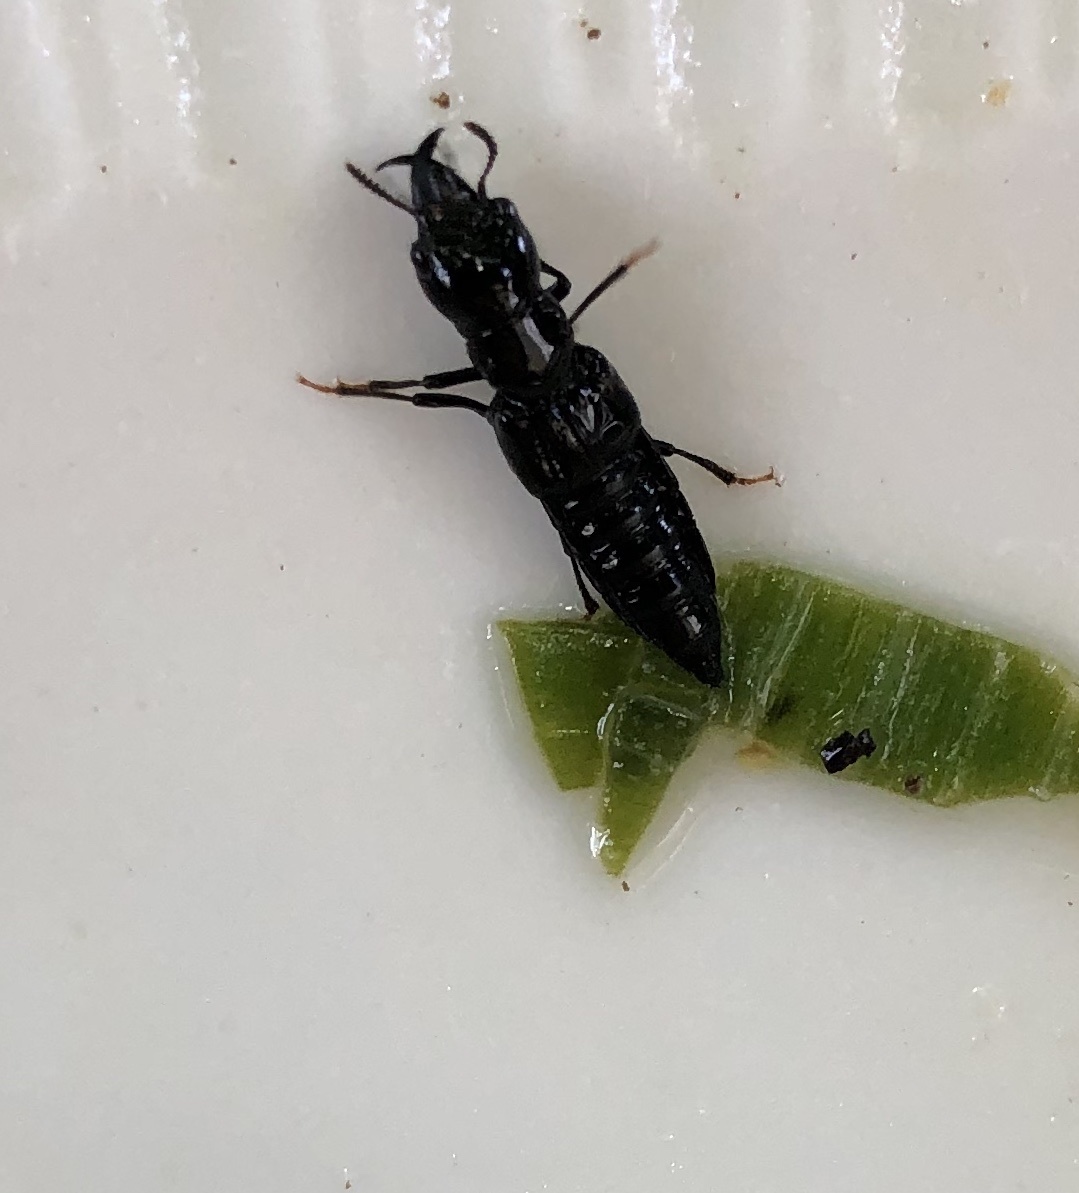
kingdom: Animalia
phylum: Arthropoda
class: Insecta
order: Coleoptera
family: Staphylinidae
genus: Oxyporus
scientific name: Oxyporus stygicus
